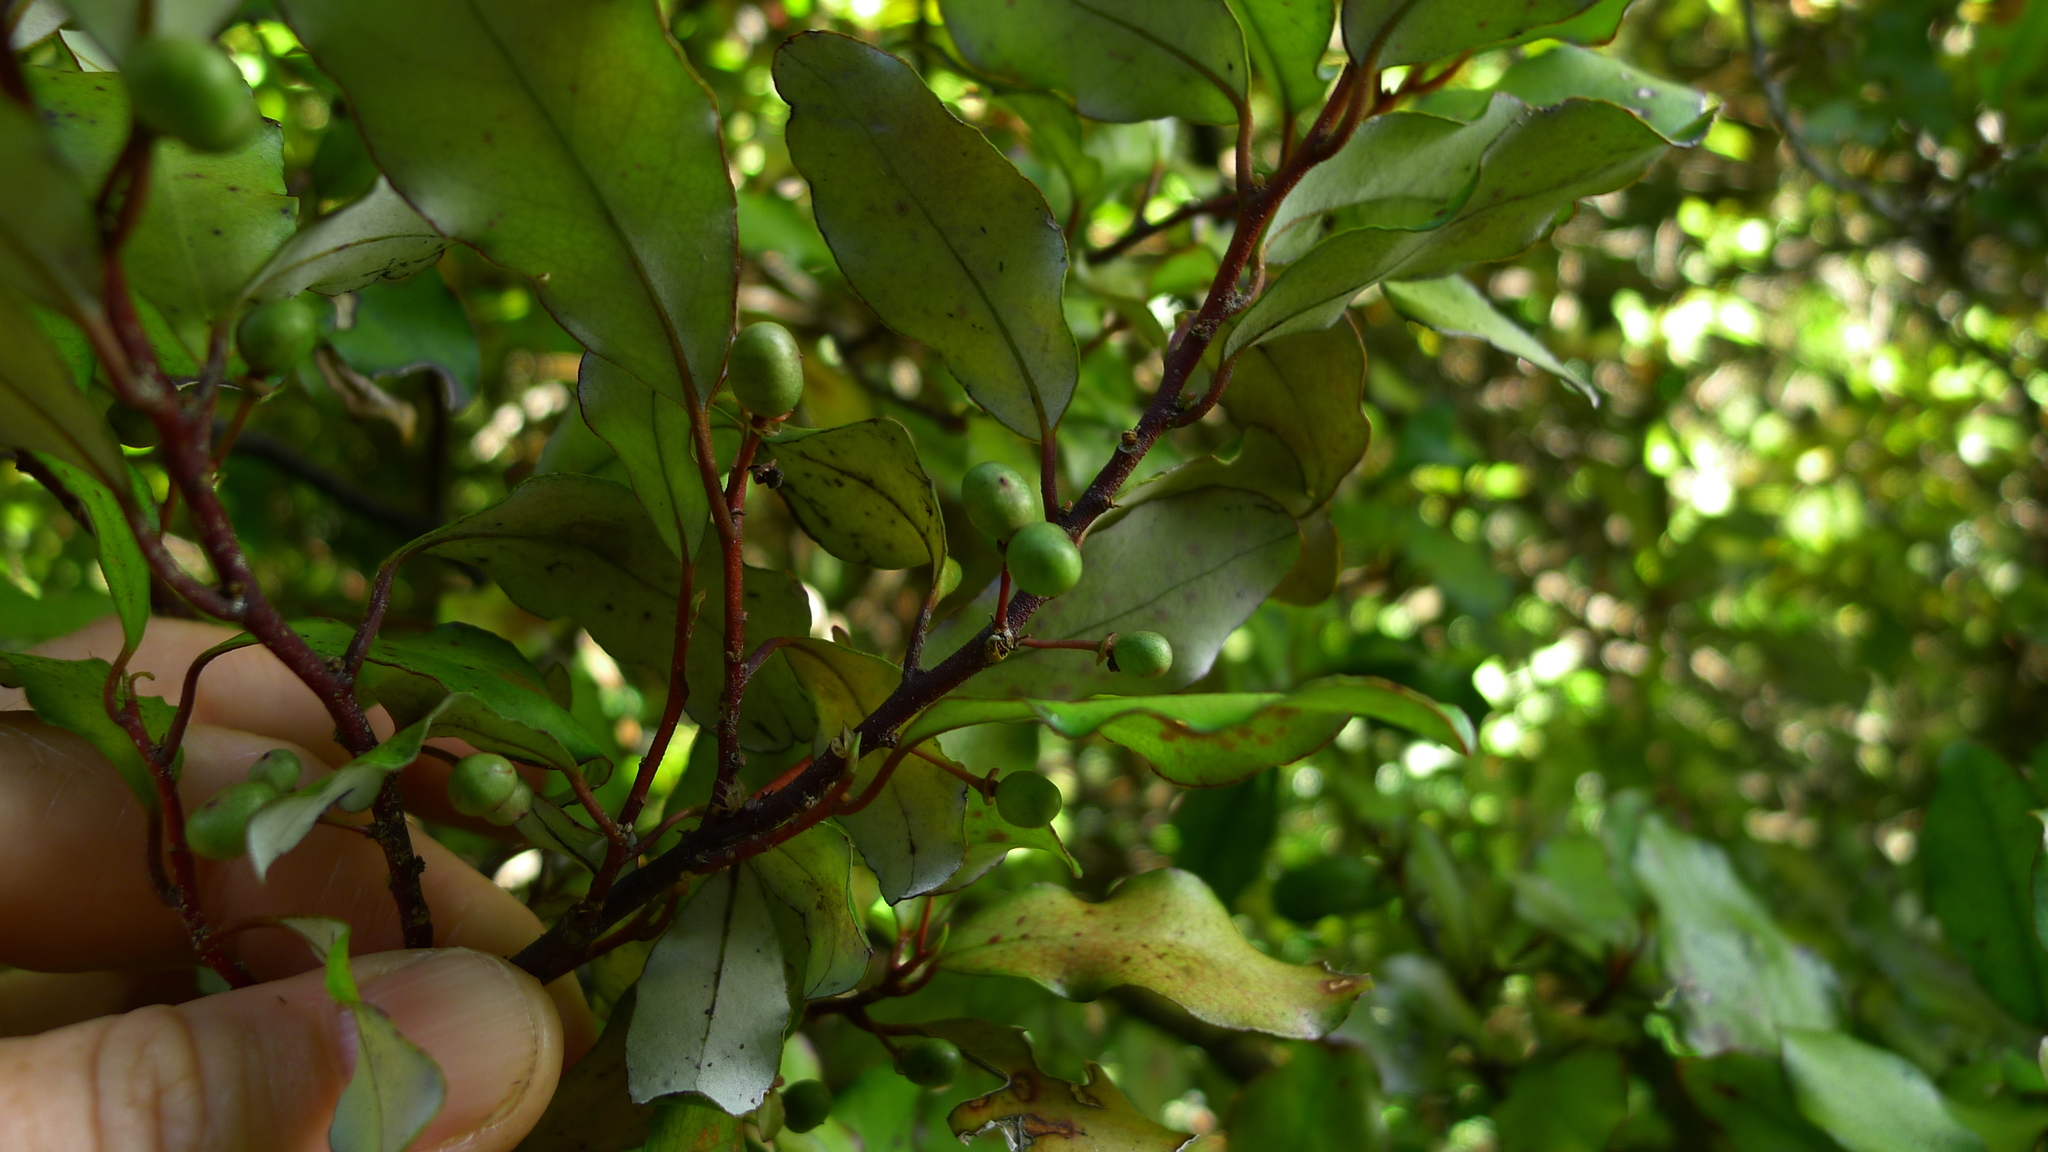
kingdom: Plantae
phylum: Tracheophyta
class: Magnoliopsida
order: Canellales
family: Winteraceae
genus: Pseudowintera
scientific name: Pseudowintera colorata
